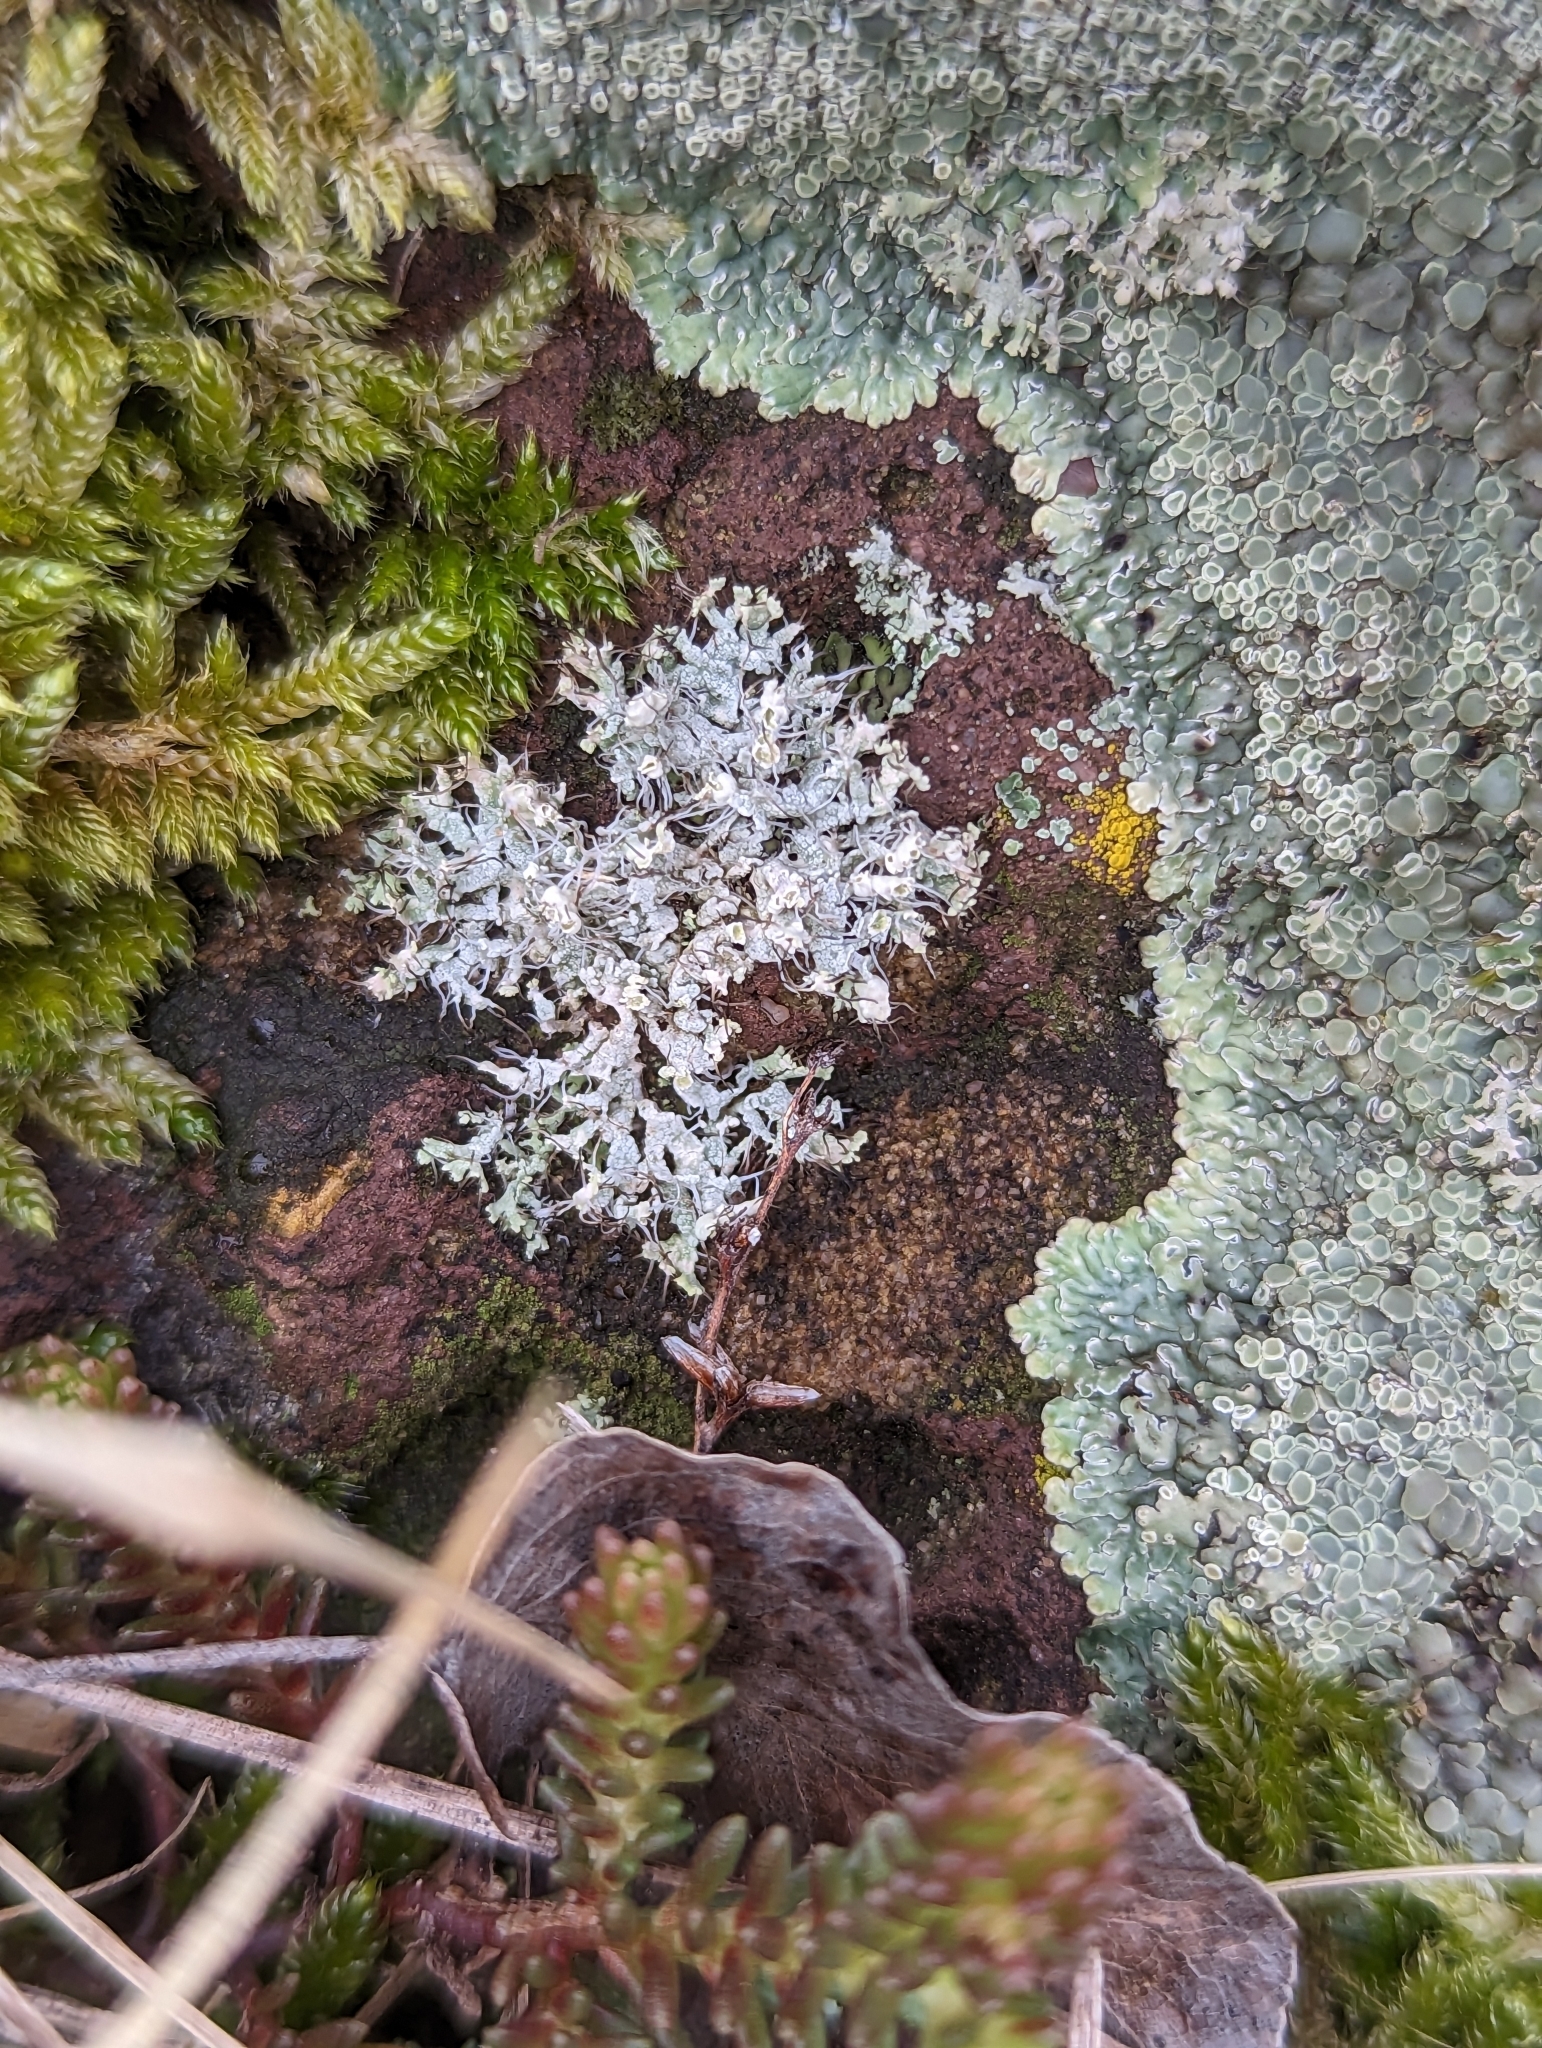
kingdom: Fungi
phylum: Ascomycota
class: Lecanoromycetes
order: Caliciales
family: Physciaceae
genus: Physcia
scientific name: Physcia adscendens
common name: Hooded rosette lichen
